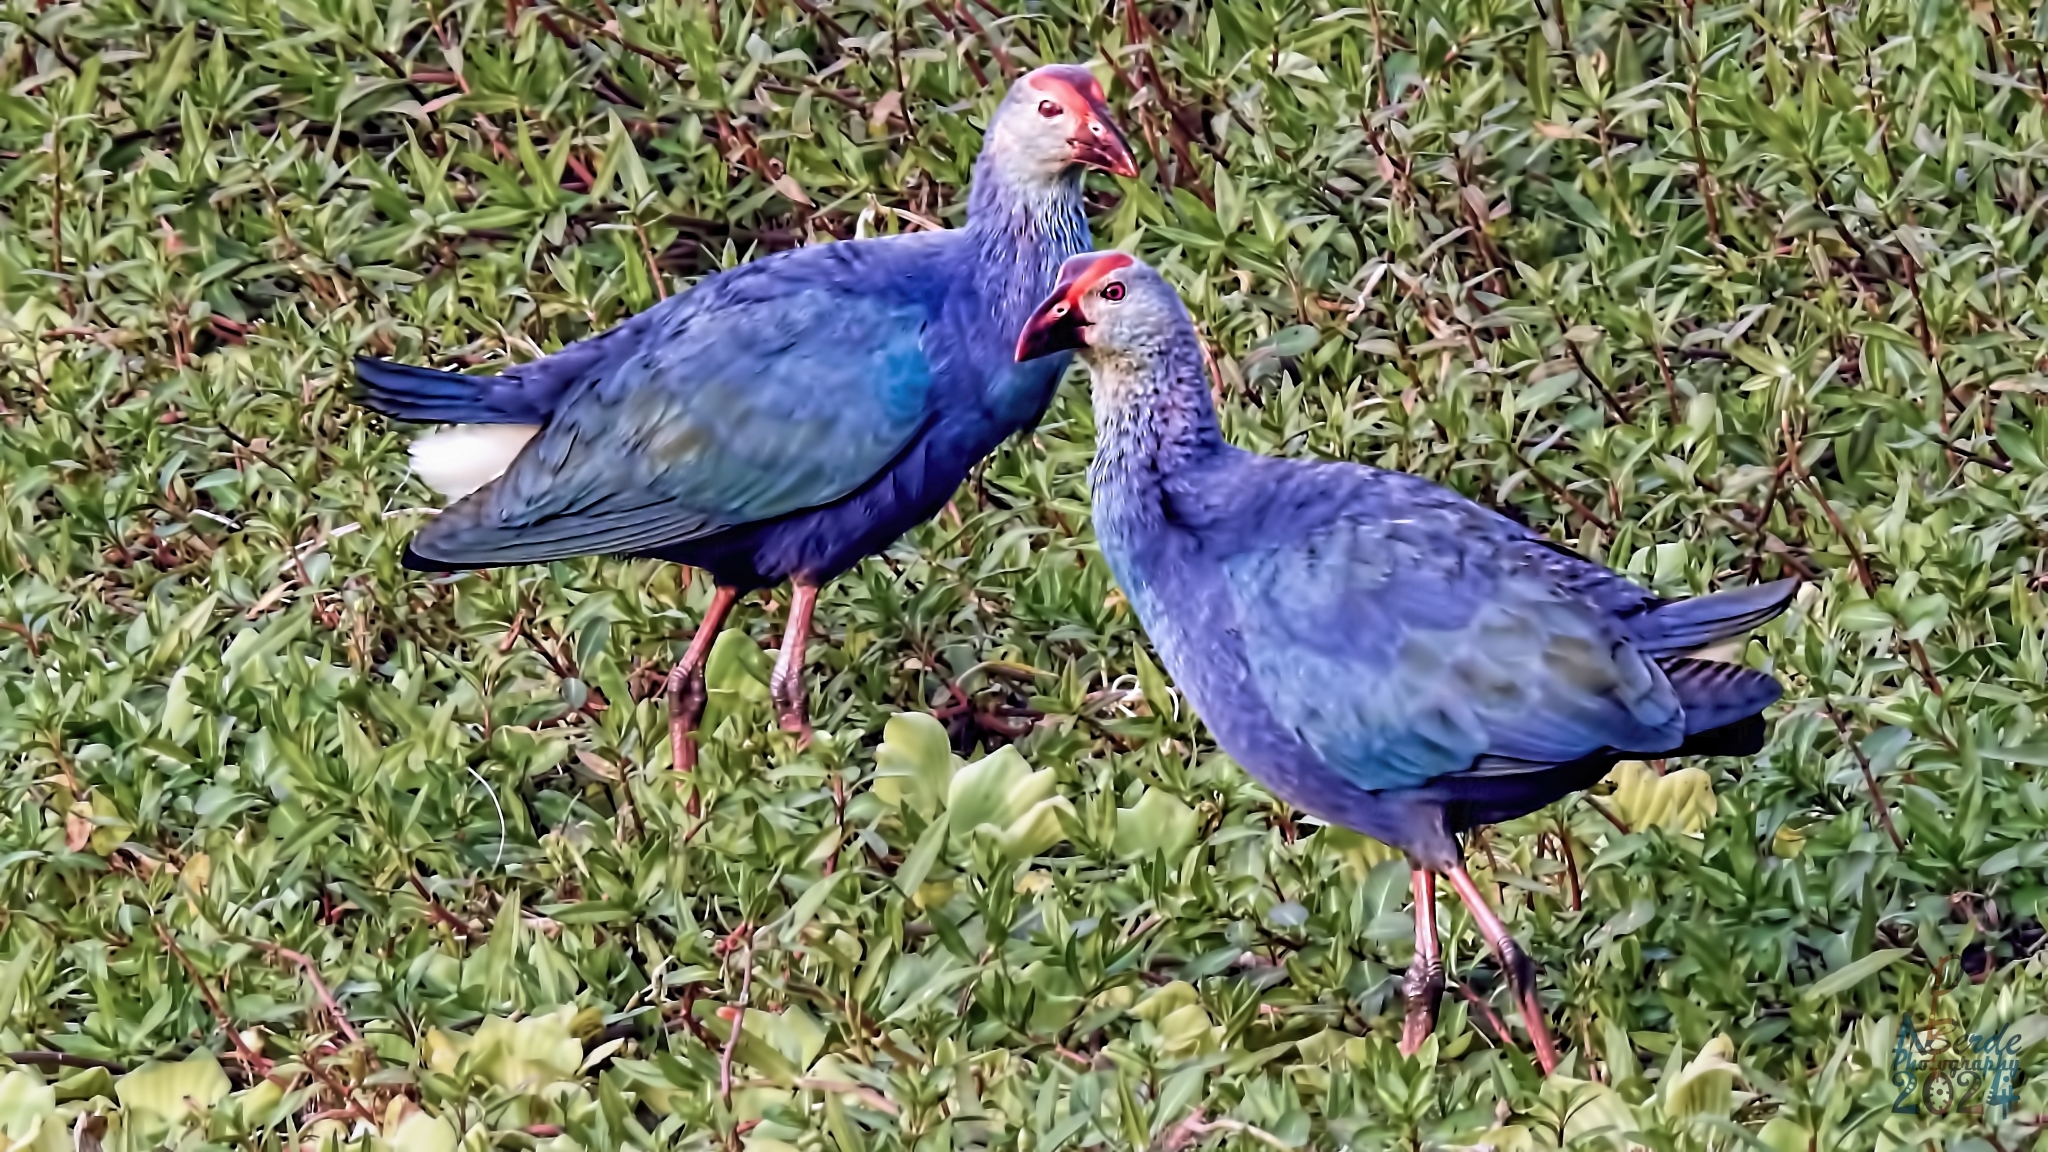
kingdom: Animalia
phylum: Chordata
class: Aves
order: Gruiformes
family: Rallidae
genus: Porphyrio
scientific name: Porphyrio porphyrio
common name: Purple swamphen
